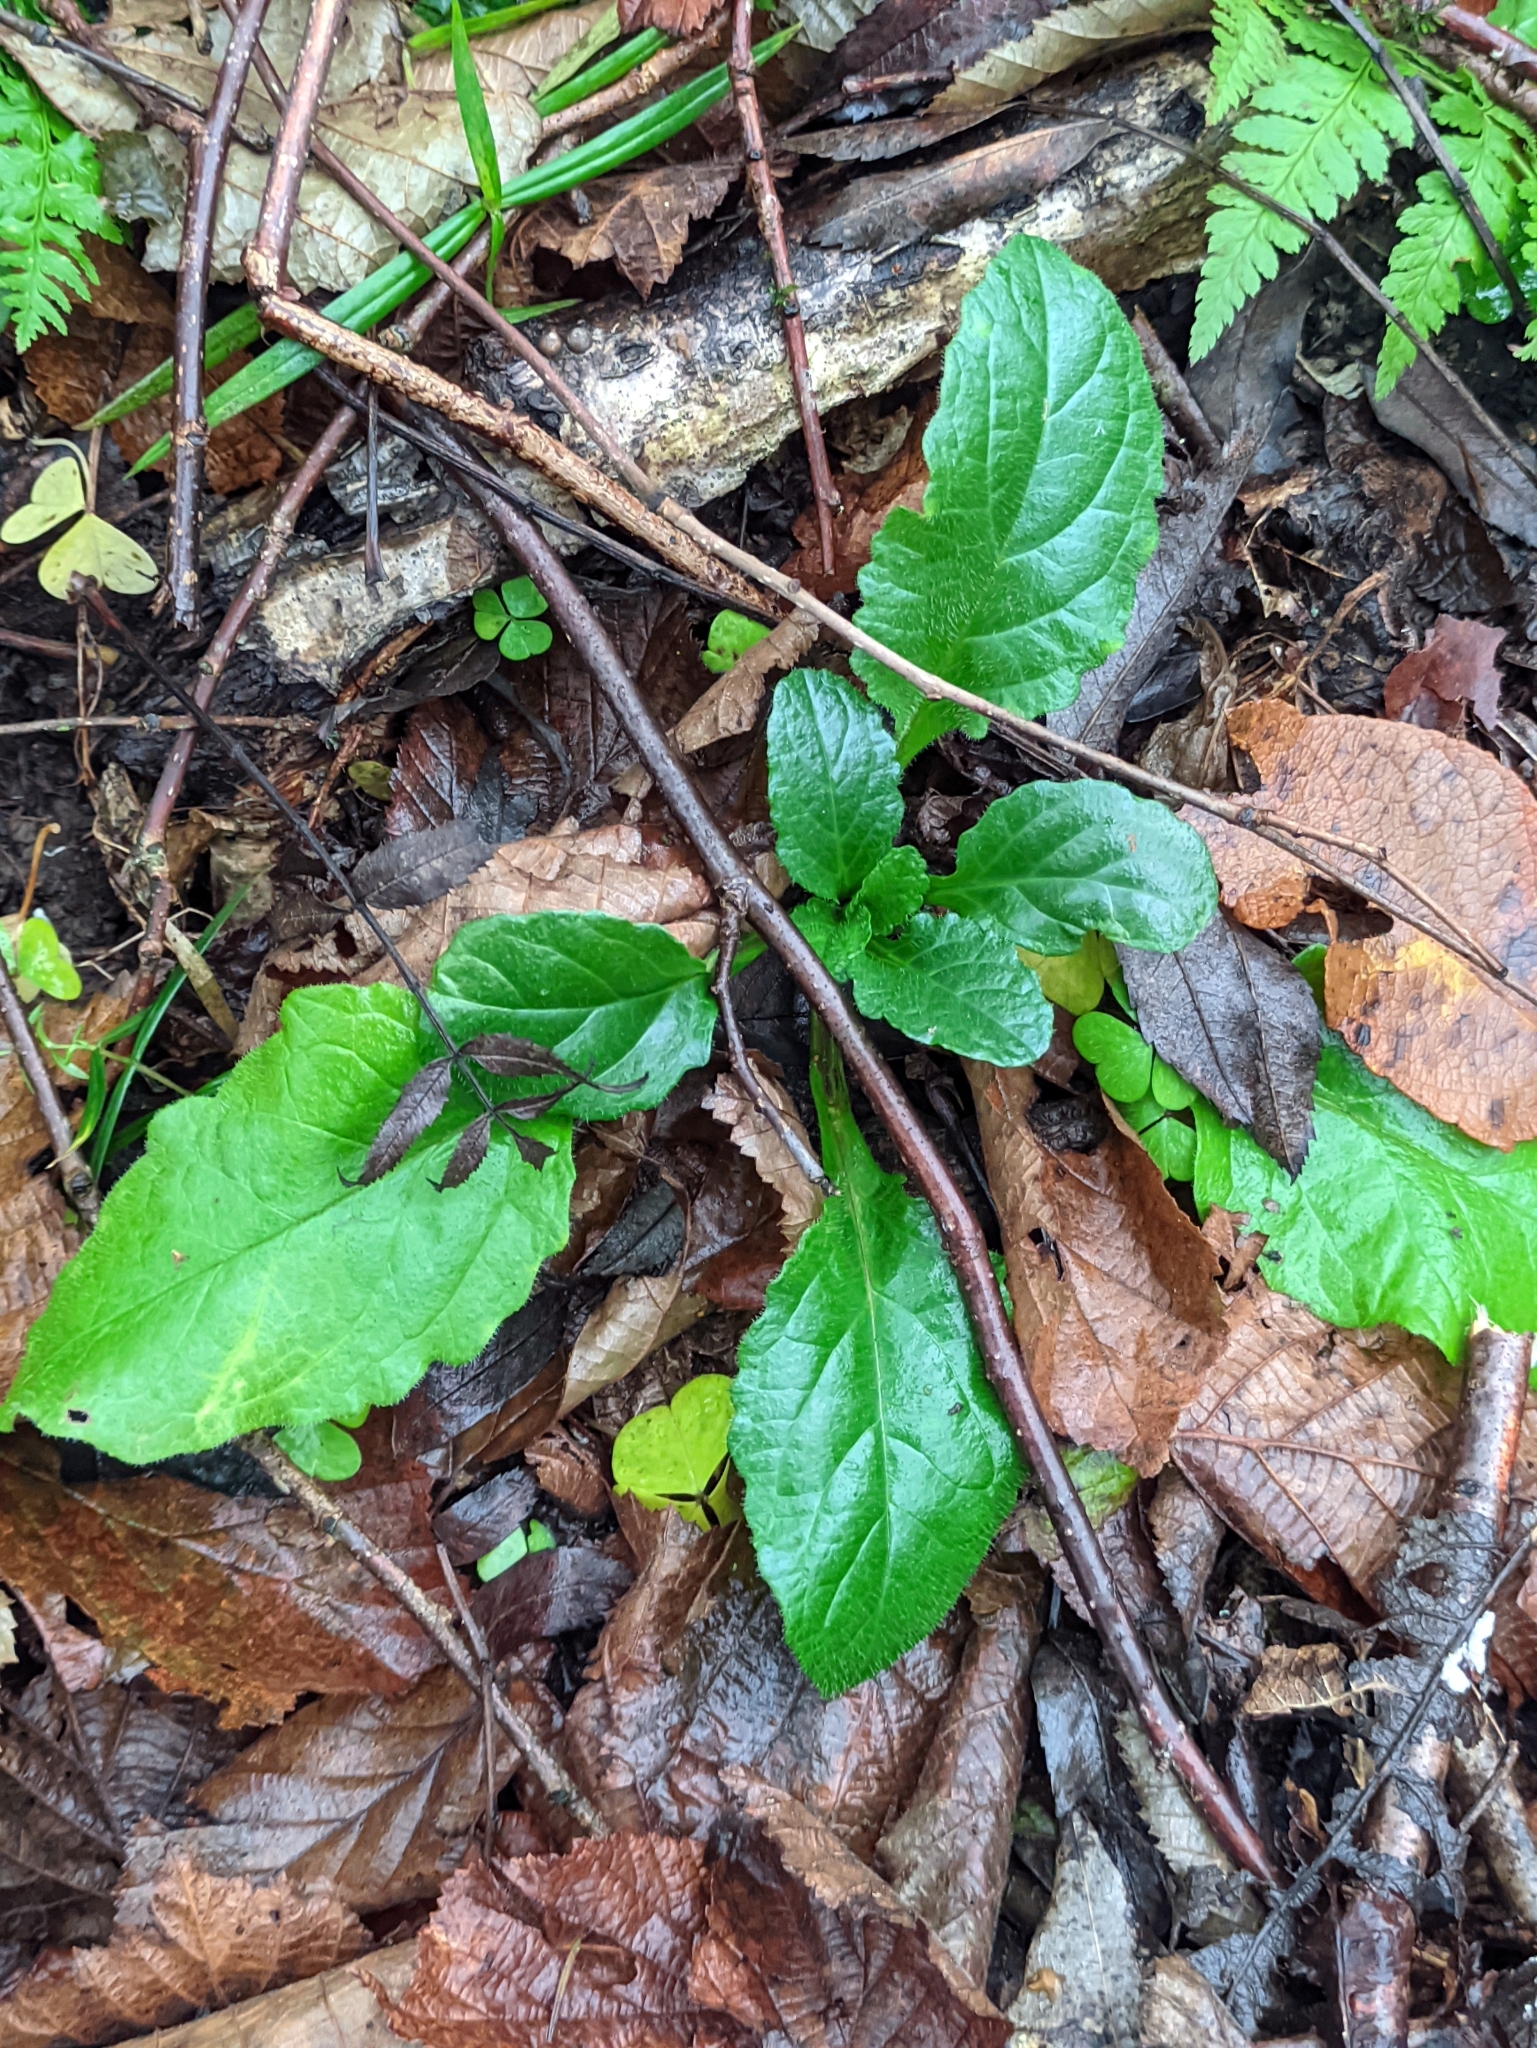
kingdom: Plantae
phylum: Tracheophyta
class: Magnoliopsida
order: Lamiales
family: Lamiaceae
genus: Ajuga
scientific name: Ajuga reptans
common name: Bugle
